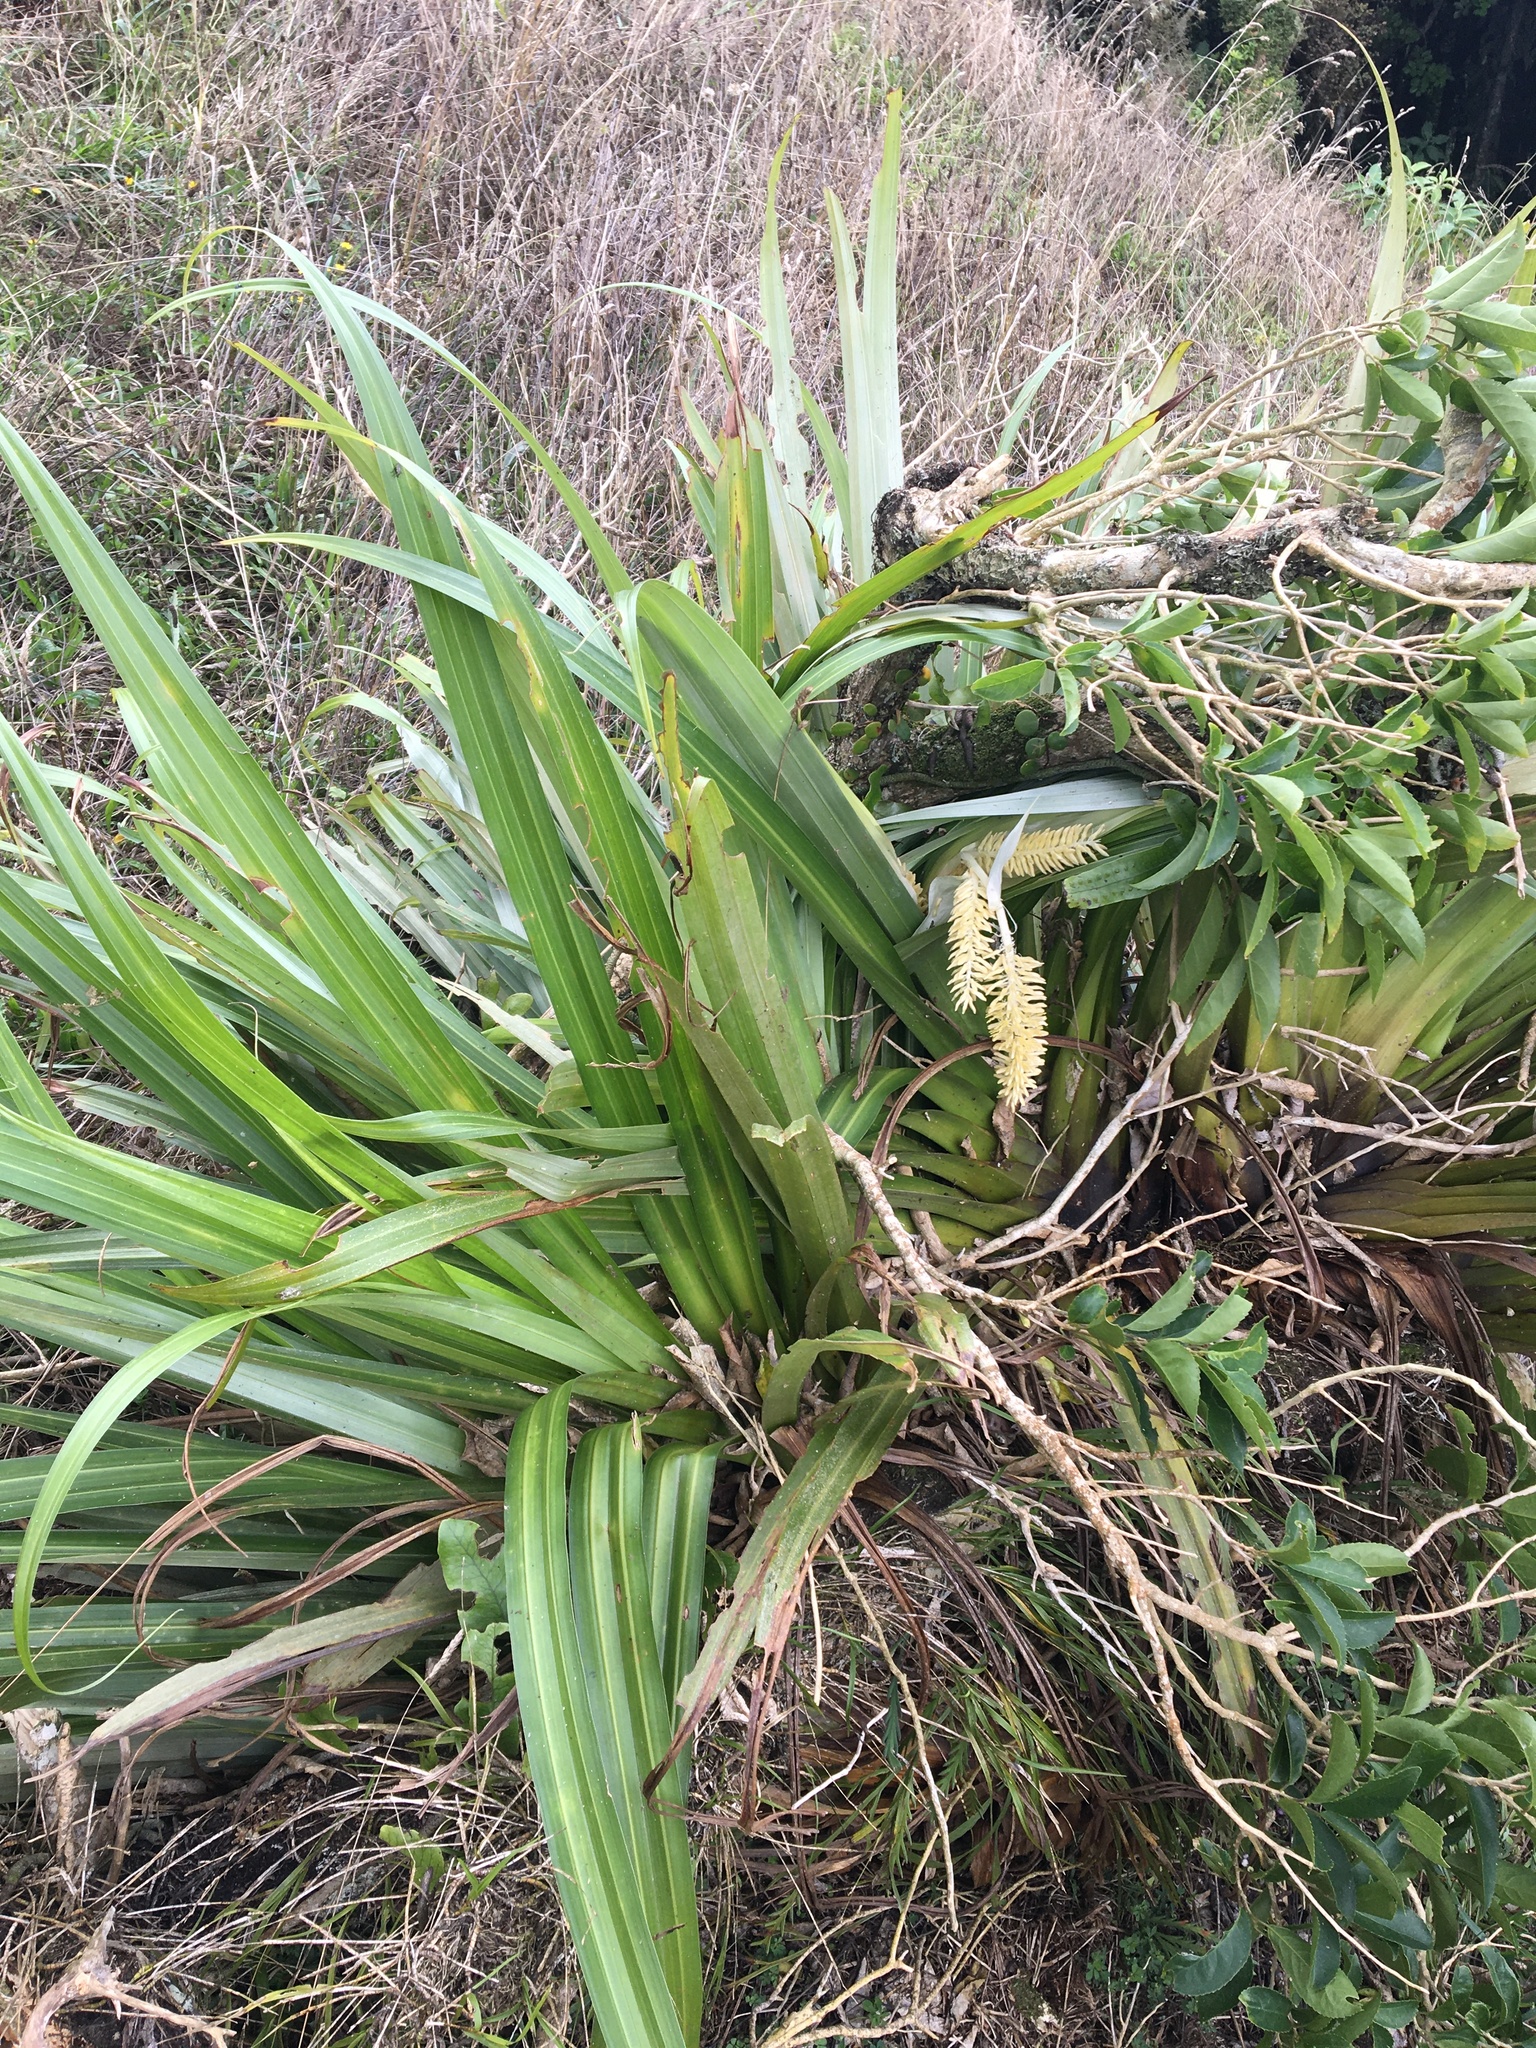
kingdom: Plantae
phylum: Tracheophyta
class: Liliopsida
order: Asparagales
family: Asteliaceae
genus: Astelia
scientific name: Astelia hastata
